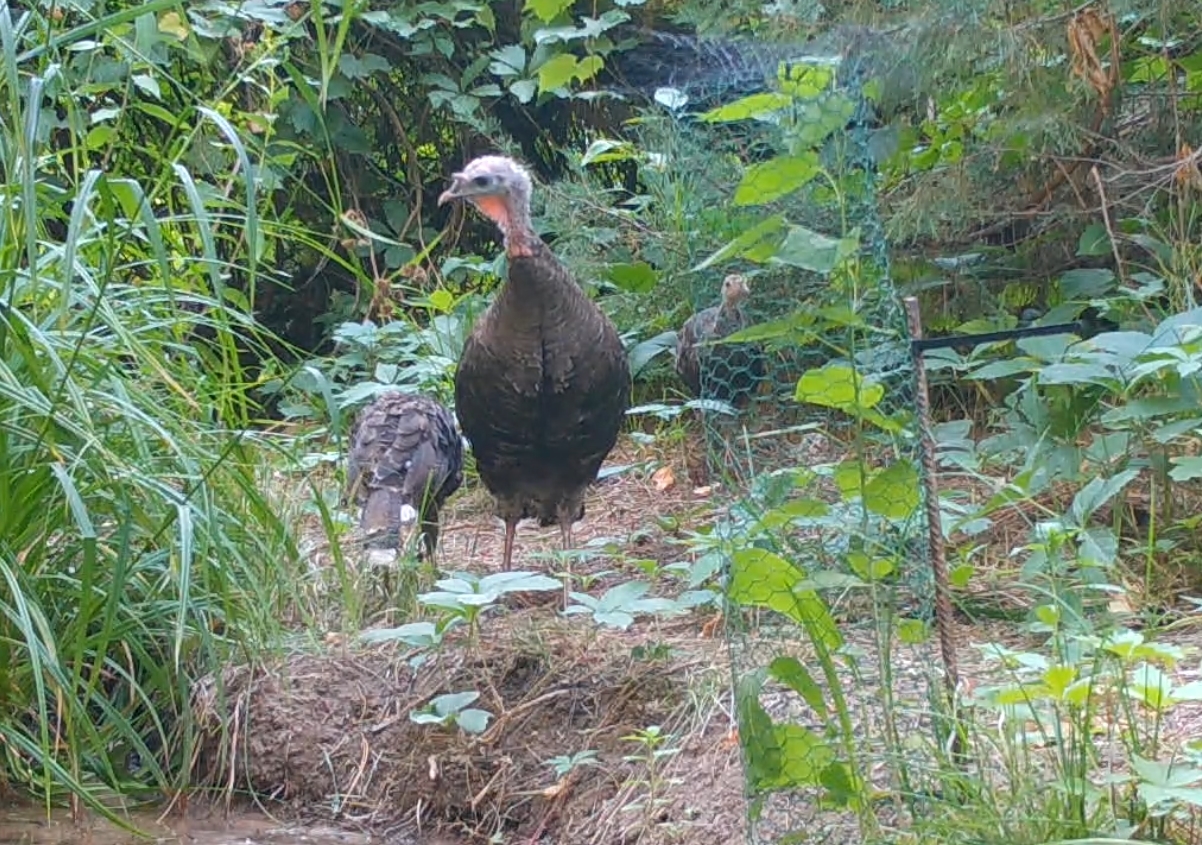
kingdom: Animalia
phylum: Chordata
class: Aves
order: Galliformes
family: Phasianidae
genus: Meleagris
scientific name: Meleagris gallopavo
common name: Wild turkey
